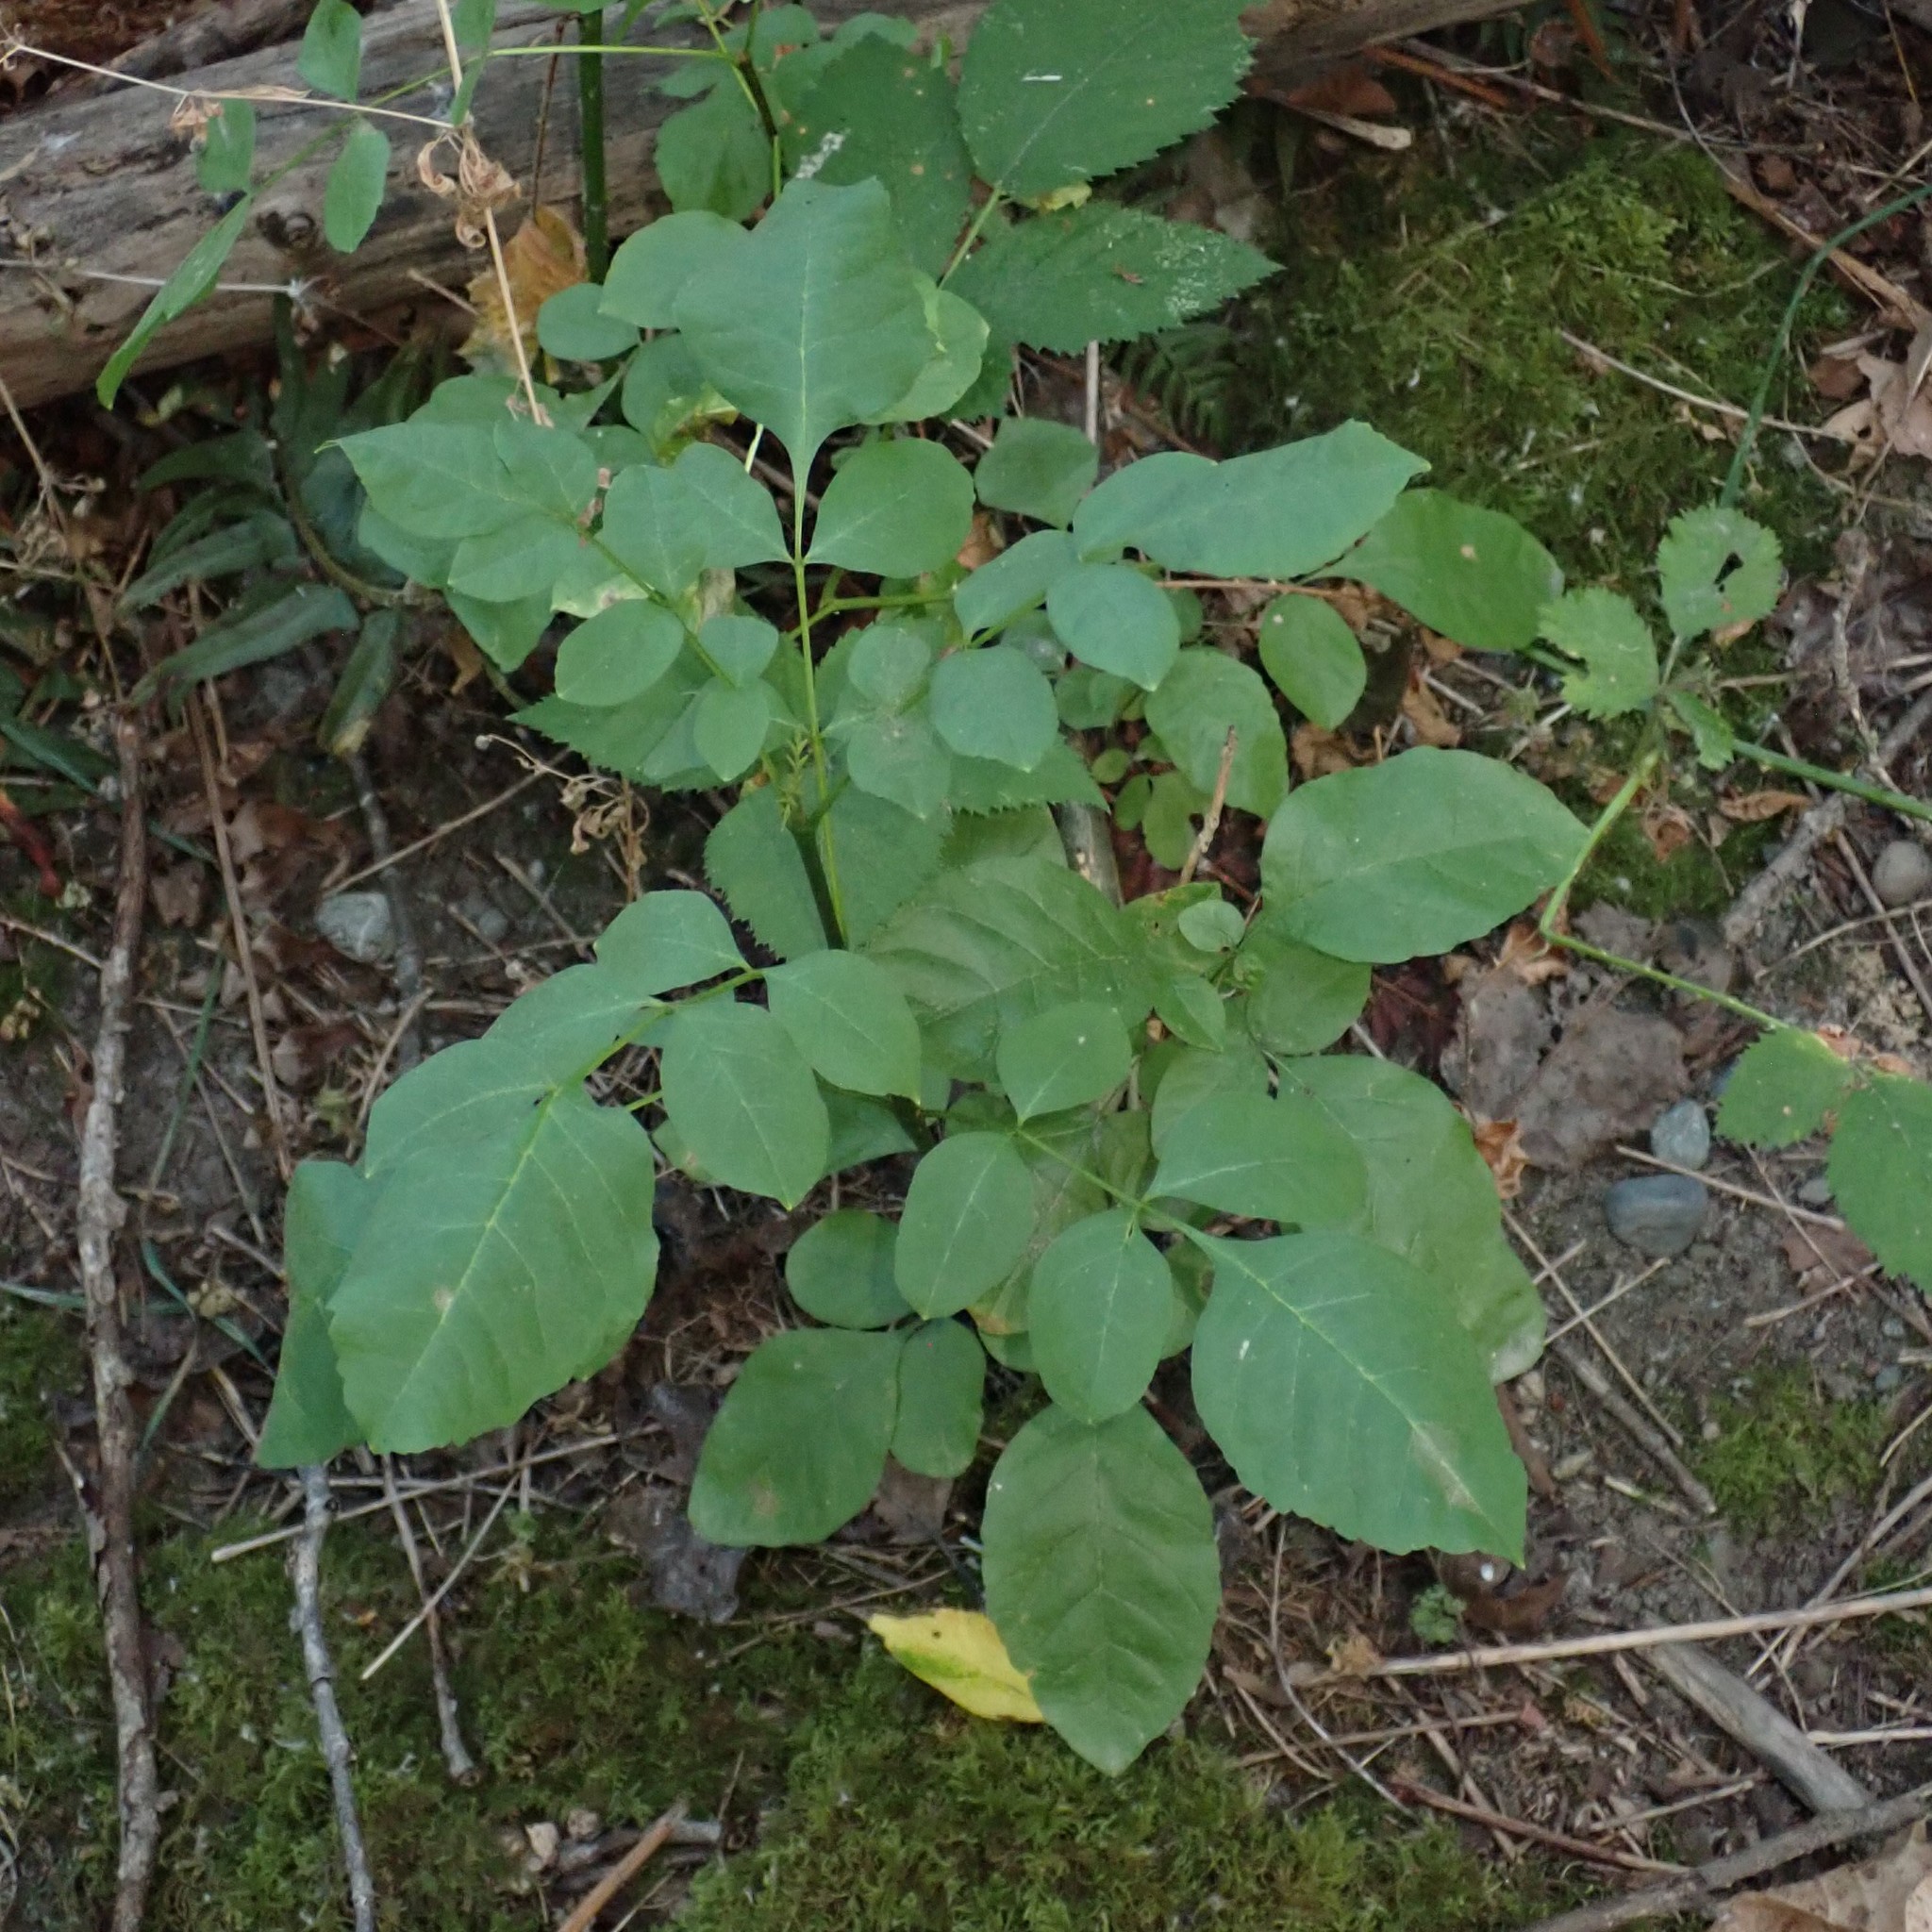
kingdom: Plantae
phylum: Tracheophyta
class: Magnoliopsida
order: Lamiales
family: Oleaceae
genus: Fraxinus
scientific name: Fraxinus latifolia
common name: Oregon ash
